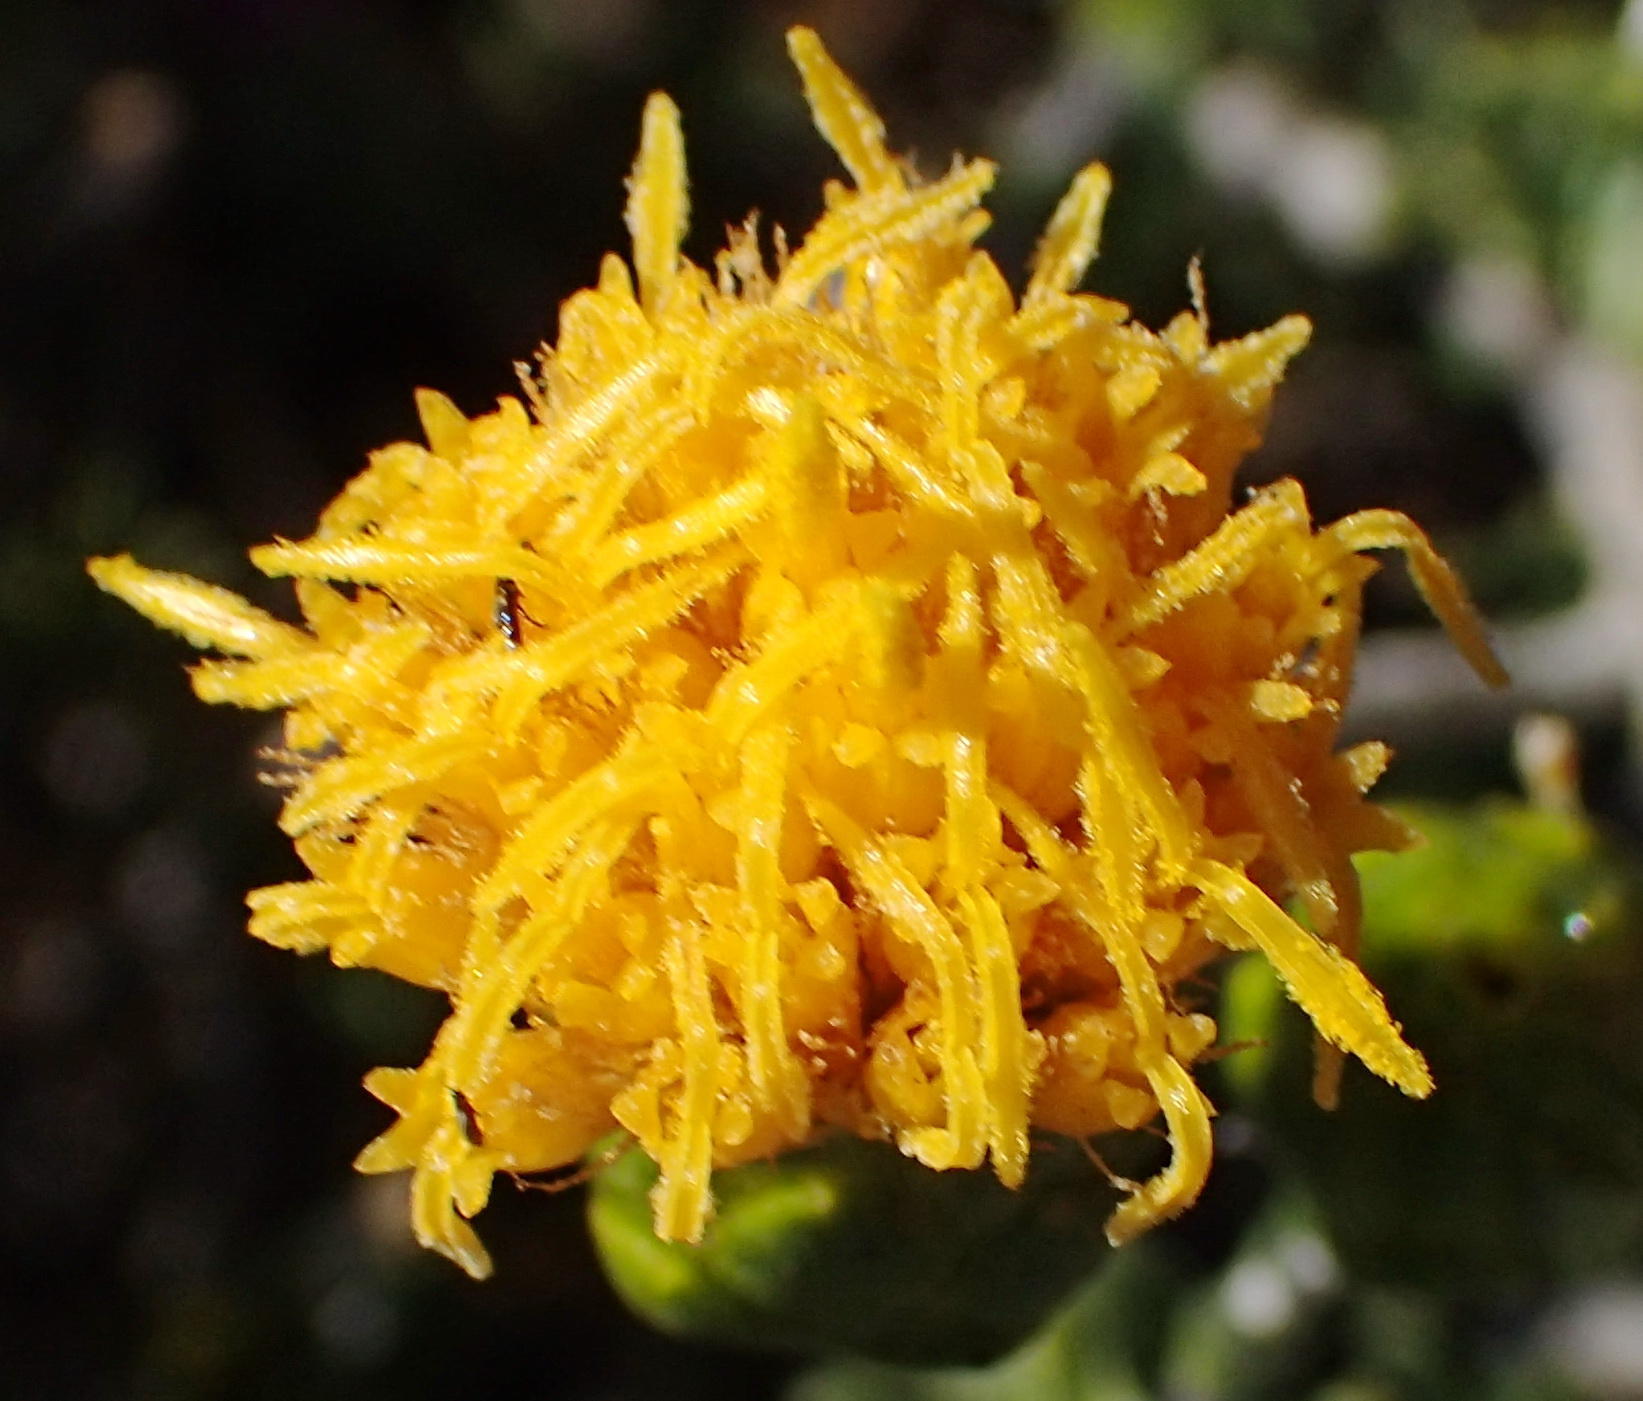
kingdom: Plantae
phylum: Tracheophyta
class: Magnoliopsida
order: Asterales
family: Asteraceae
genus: Pteronia
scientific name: Pteronia viscosa
